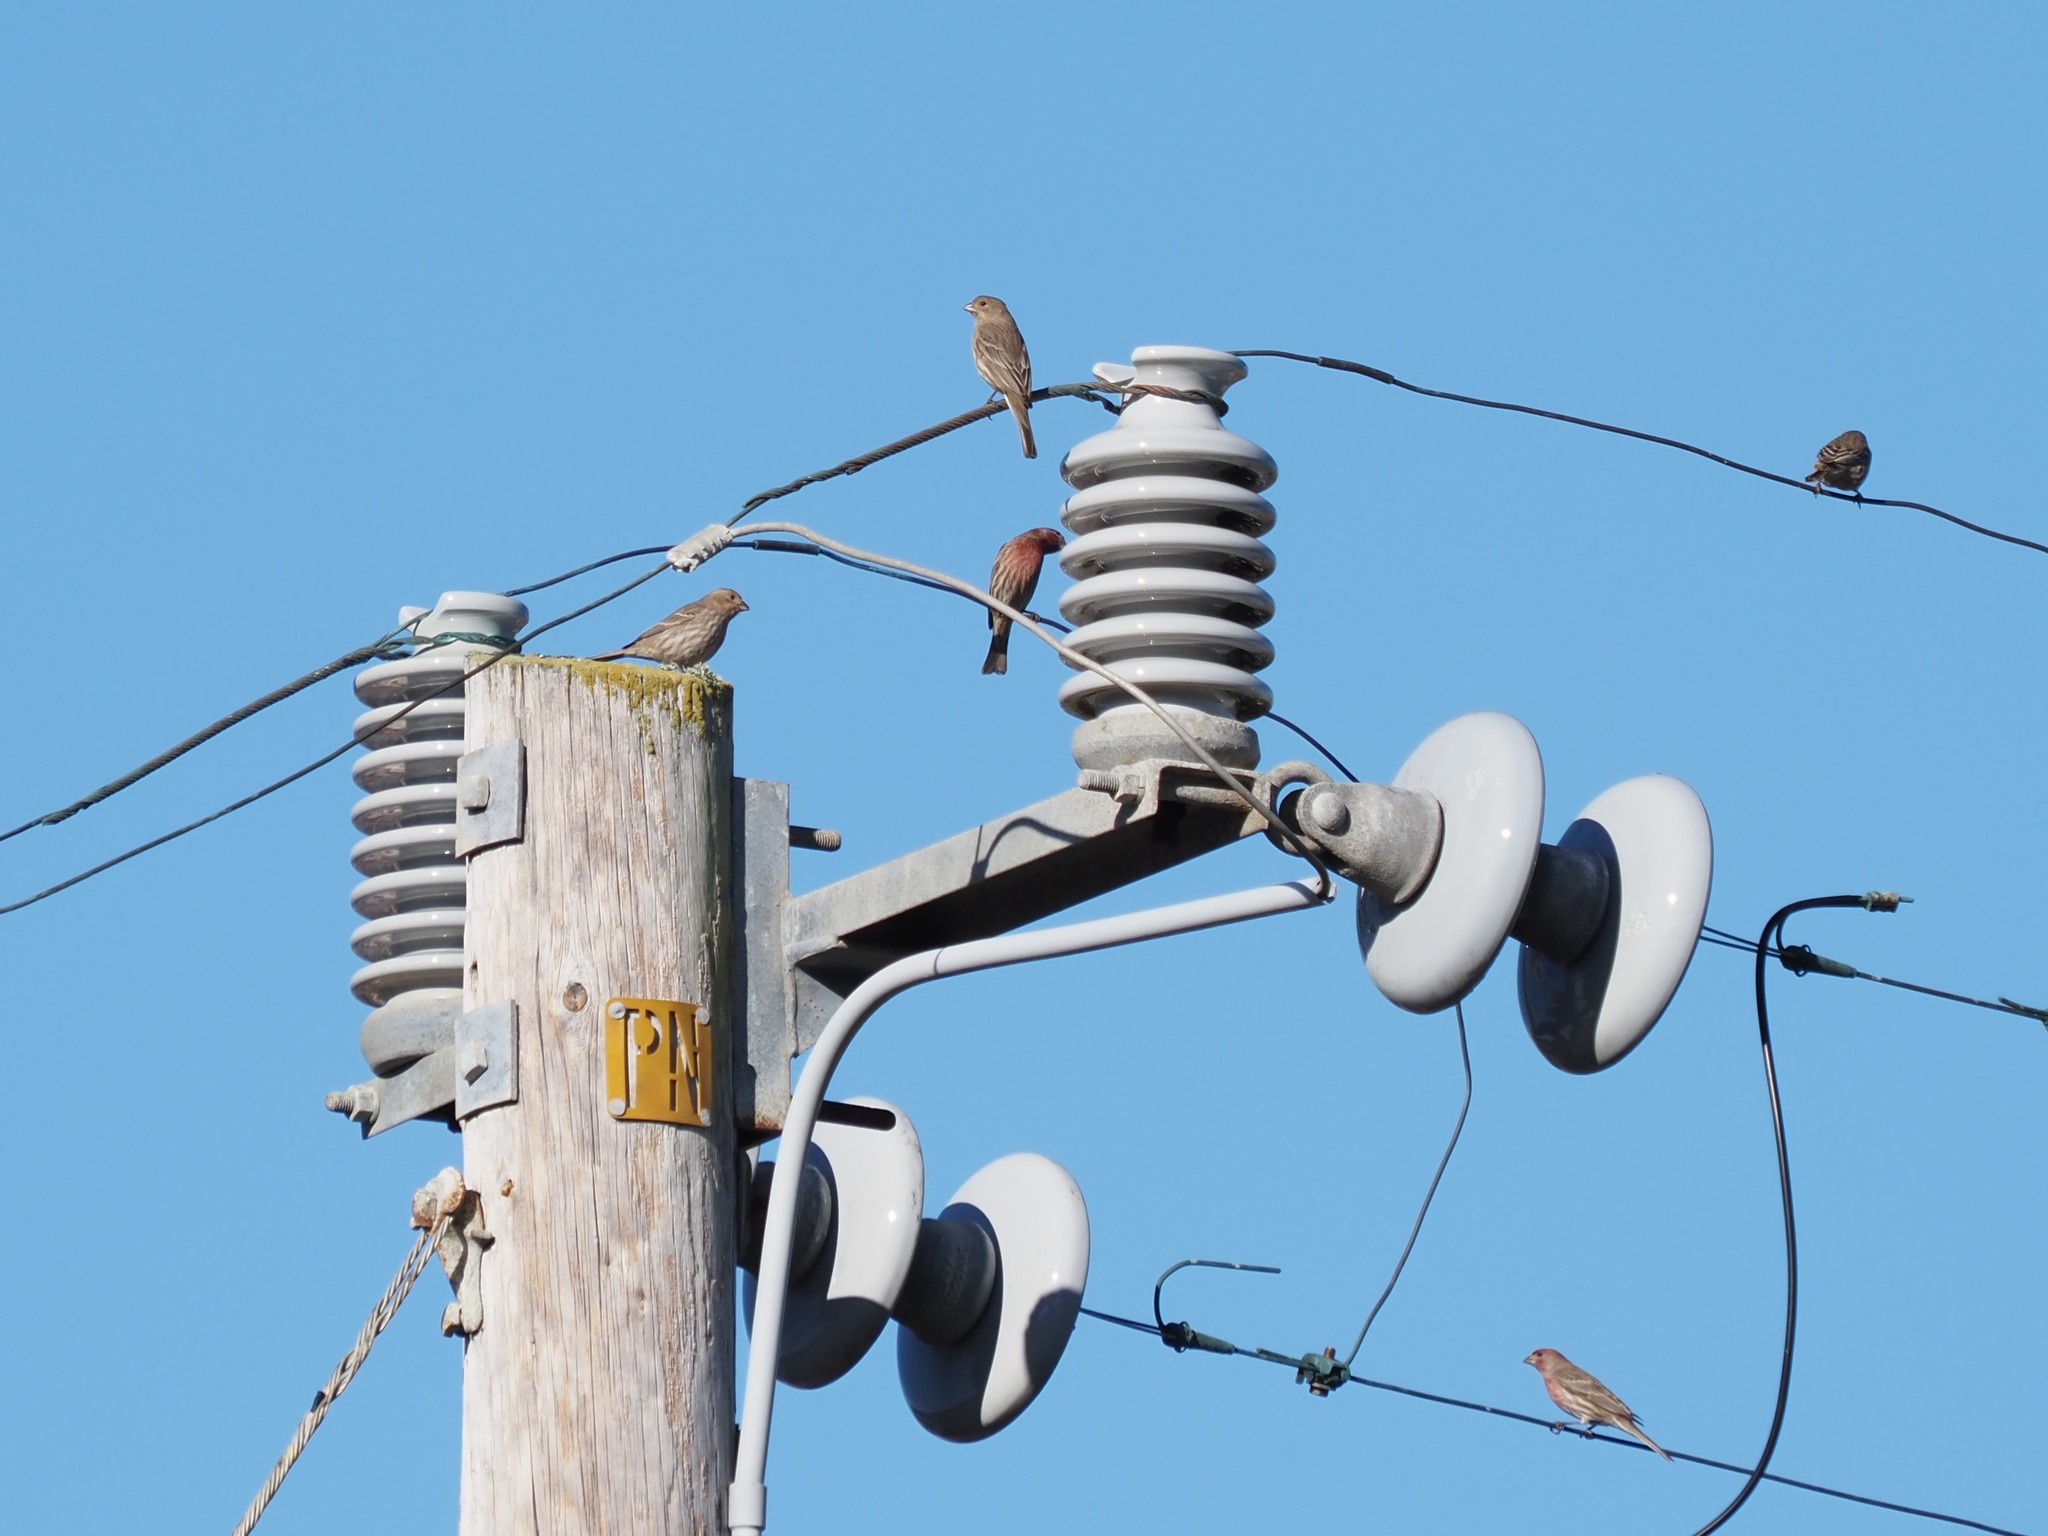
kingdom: Animalia
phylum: Chordata
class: Aves
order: Passeriformes
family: Fringillidae
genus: Haemorhous
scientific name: Haemorhous mexicanus
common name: House finch
